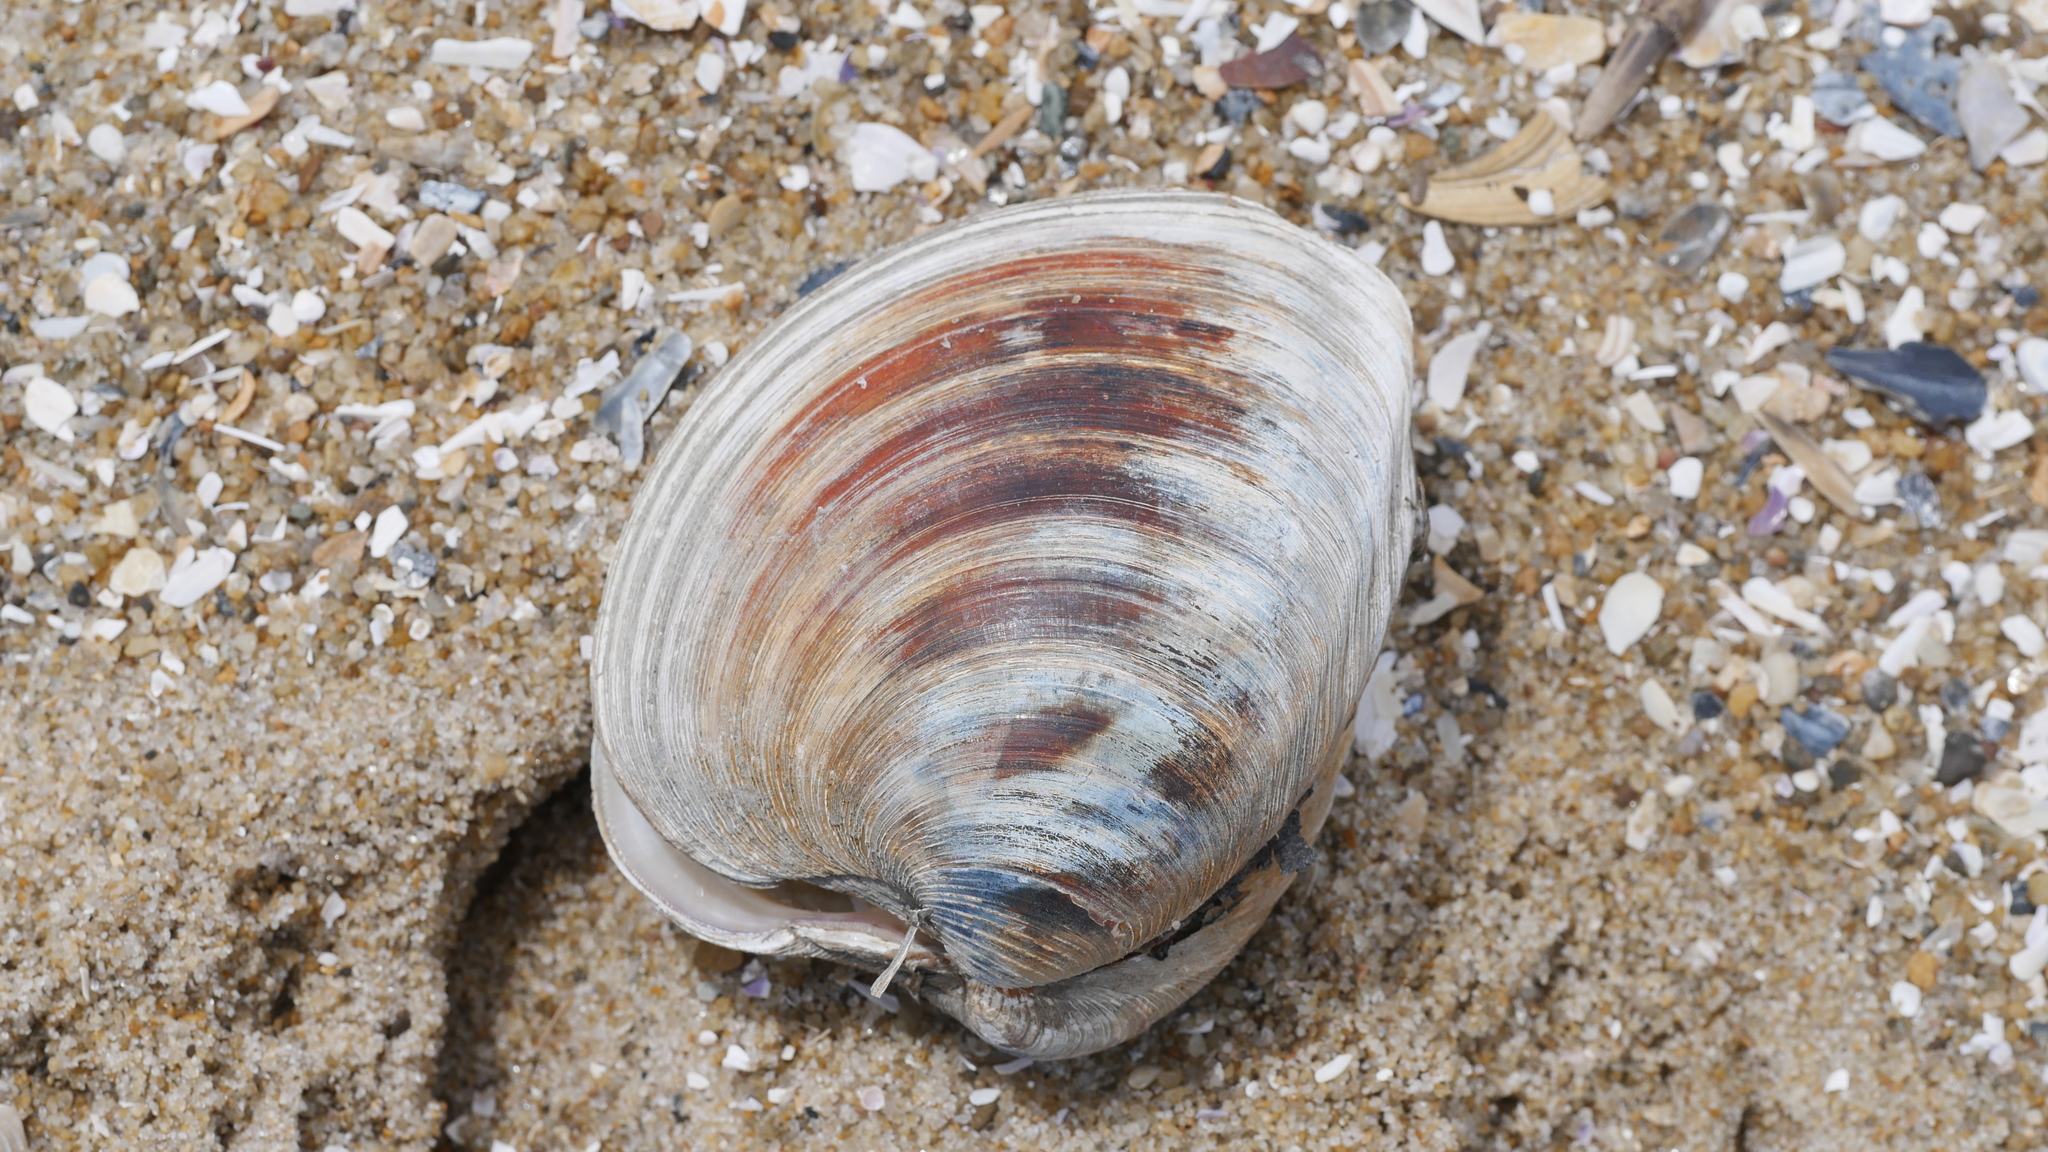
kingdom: Animalia
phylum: Mollusca
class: Bivalvia
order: Venerida
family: Veneridae
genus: Mercenaria
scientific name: Mercenaria mercenaria
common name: American hard-shelled clam
